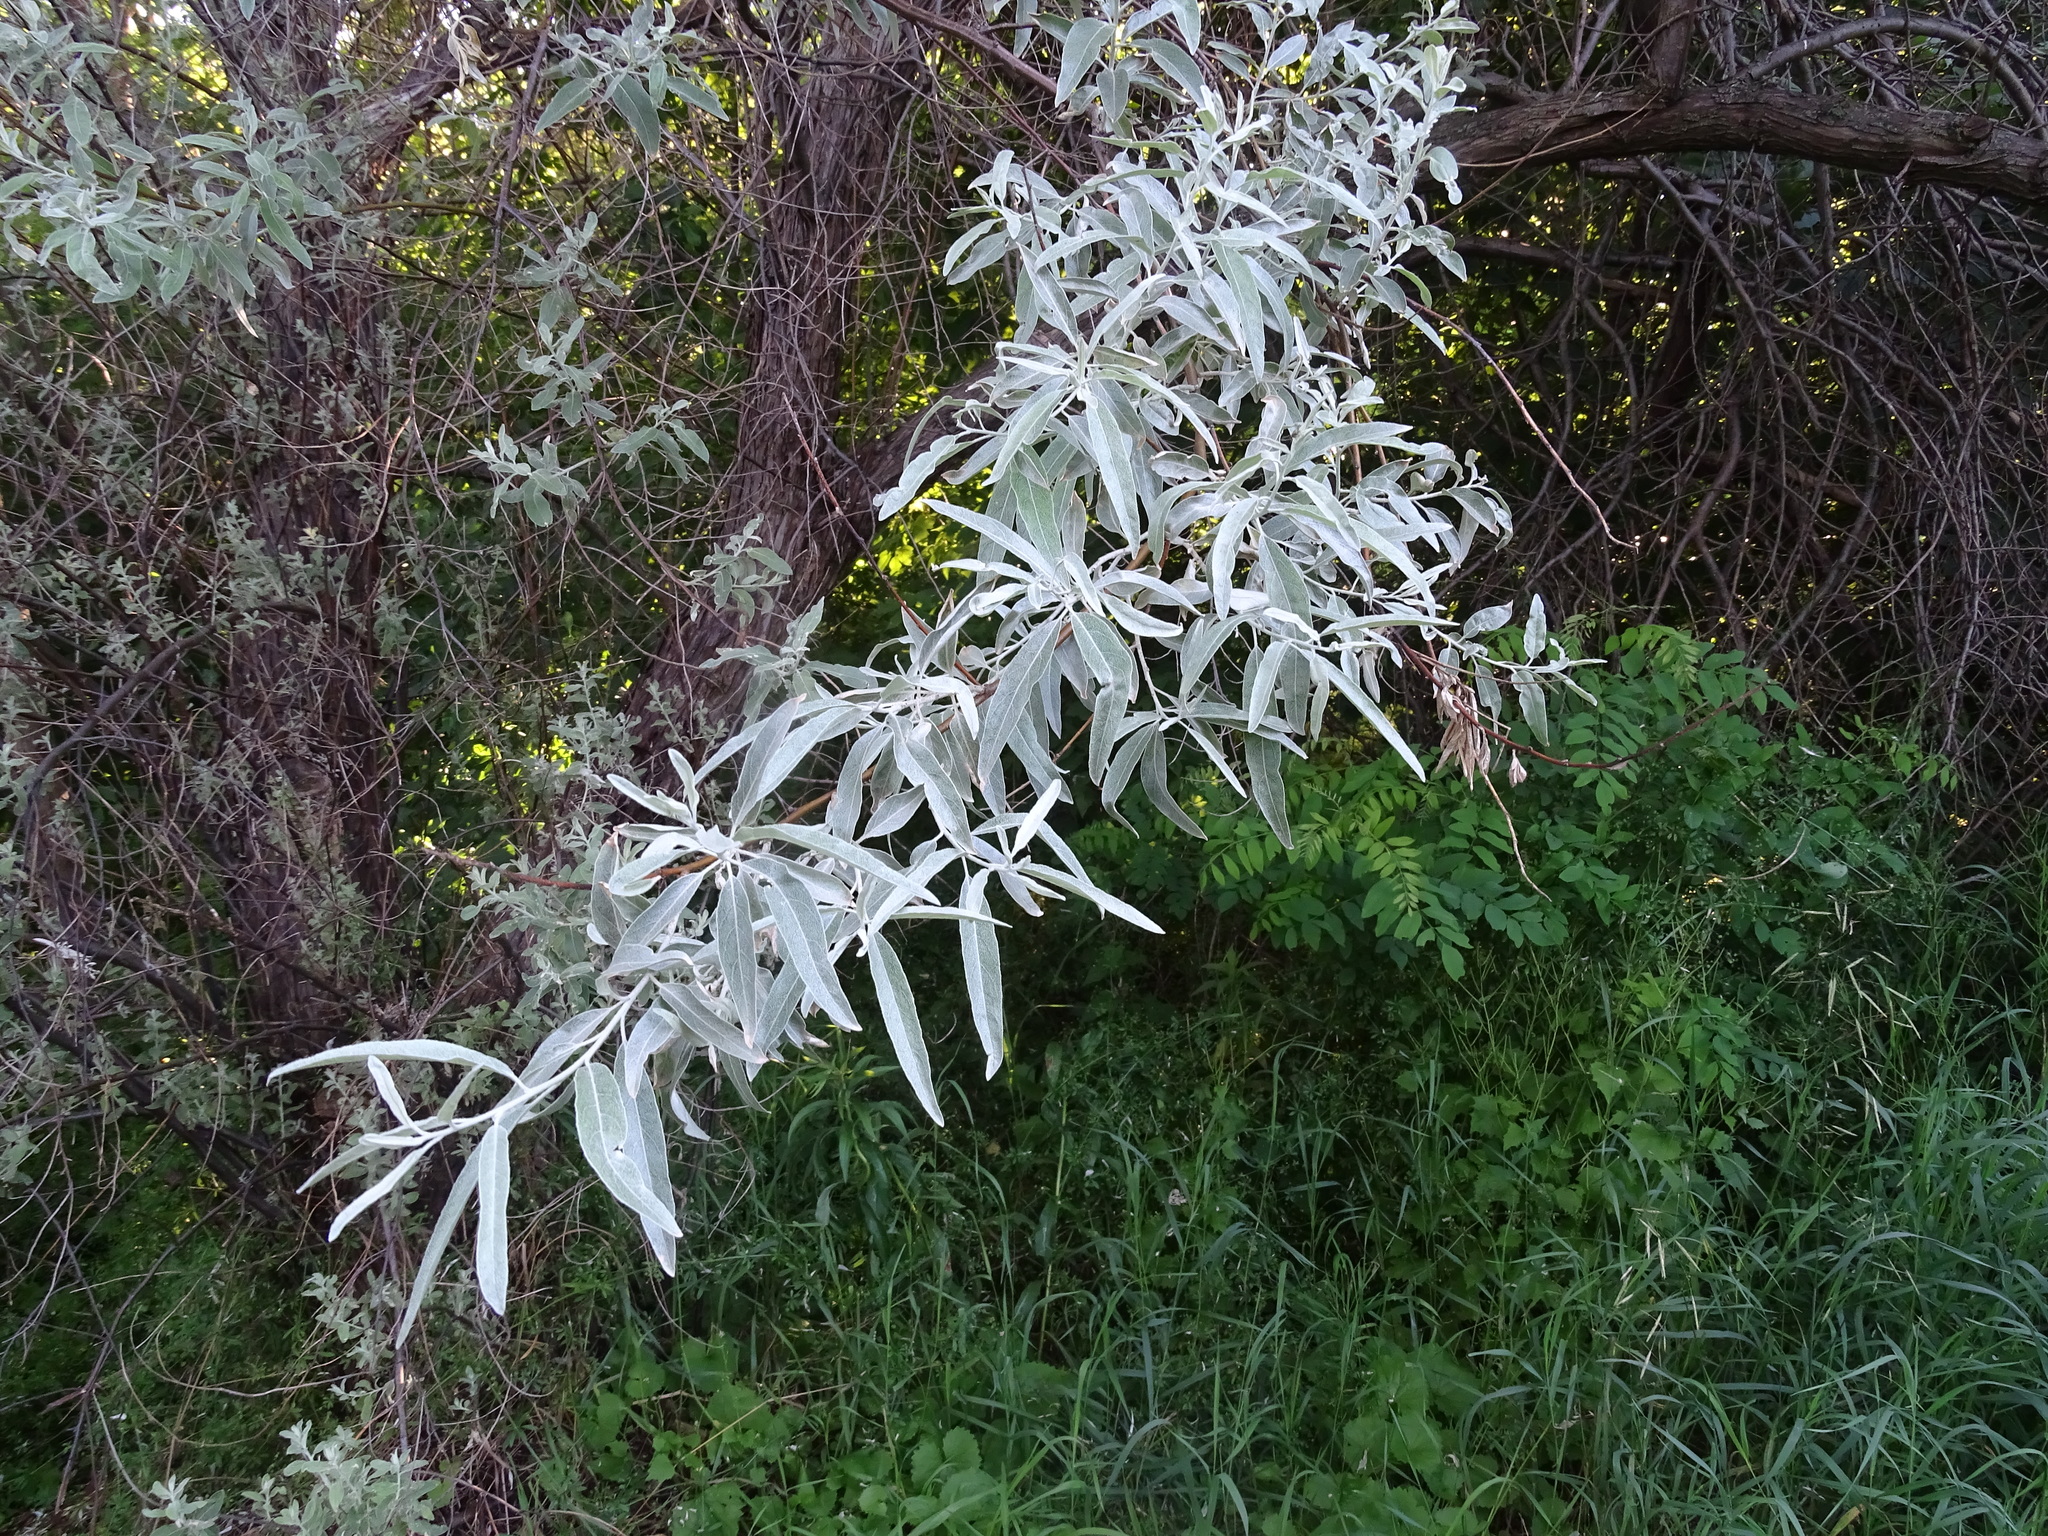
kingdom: Plantae
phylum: Tracheophyta
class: Magnoliopsida
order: Rosales
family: Elaeagnaceae
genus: Elaeagnus
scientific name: Elaeagnus angustifolia
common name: Russian olive
